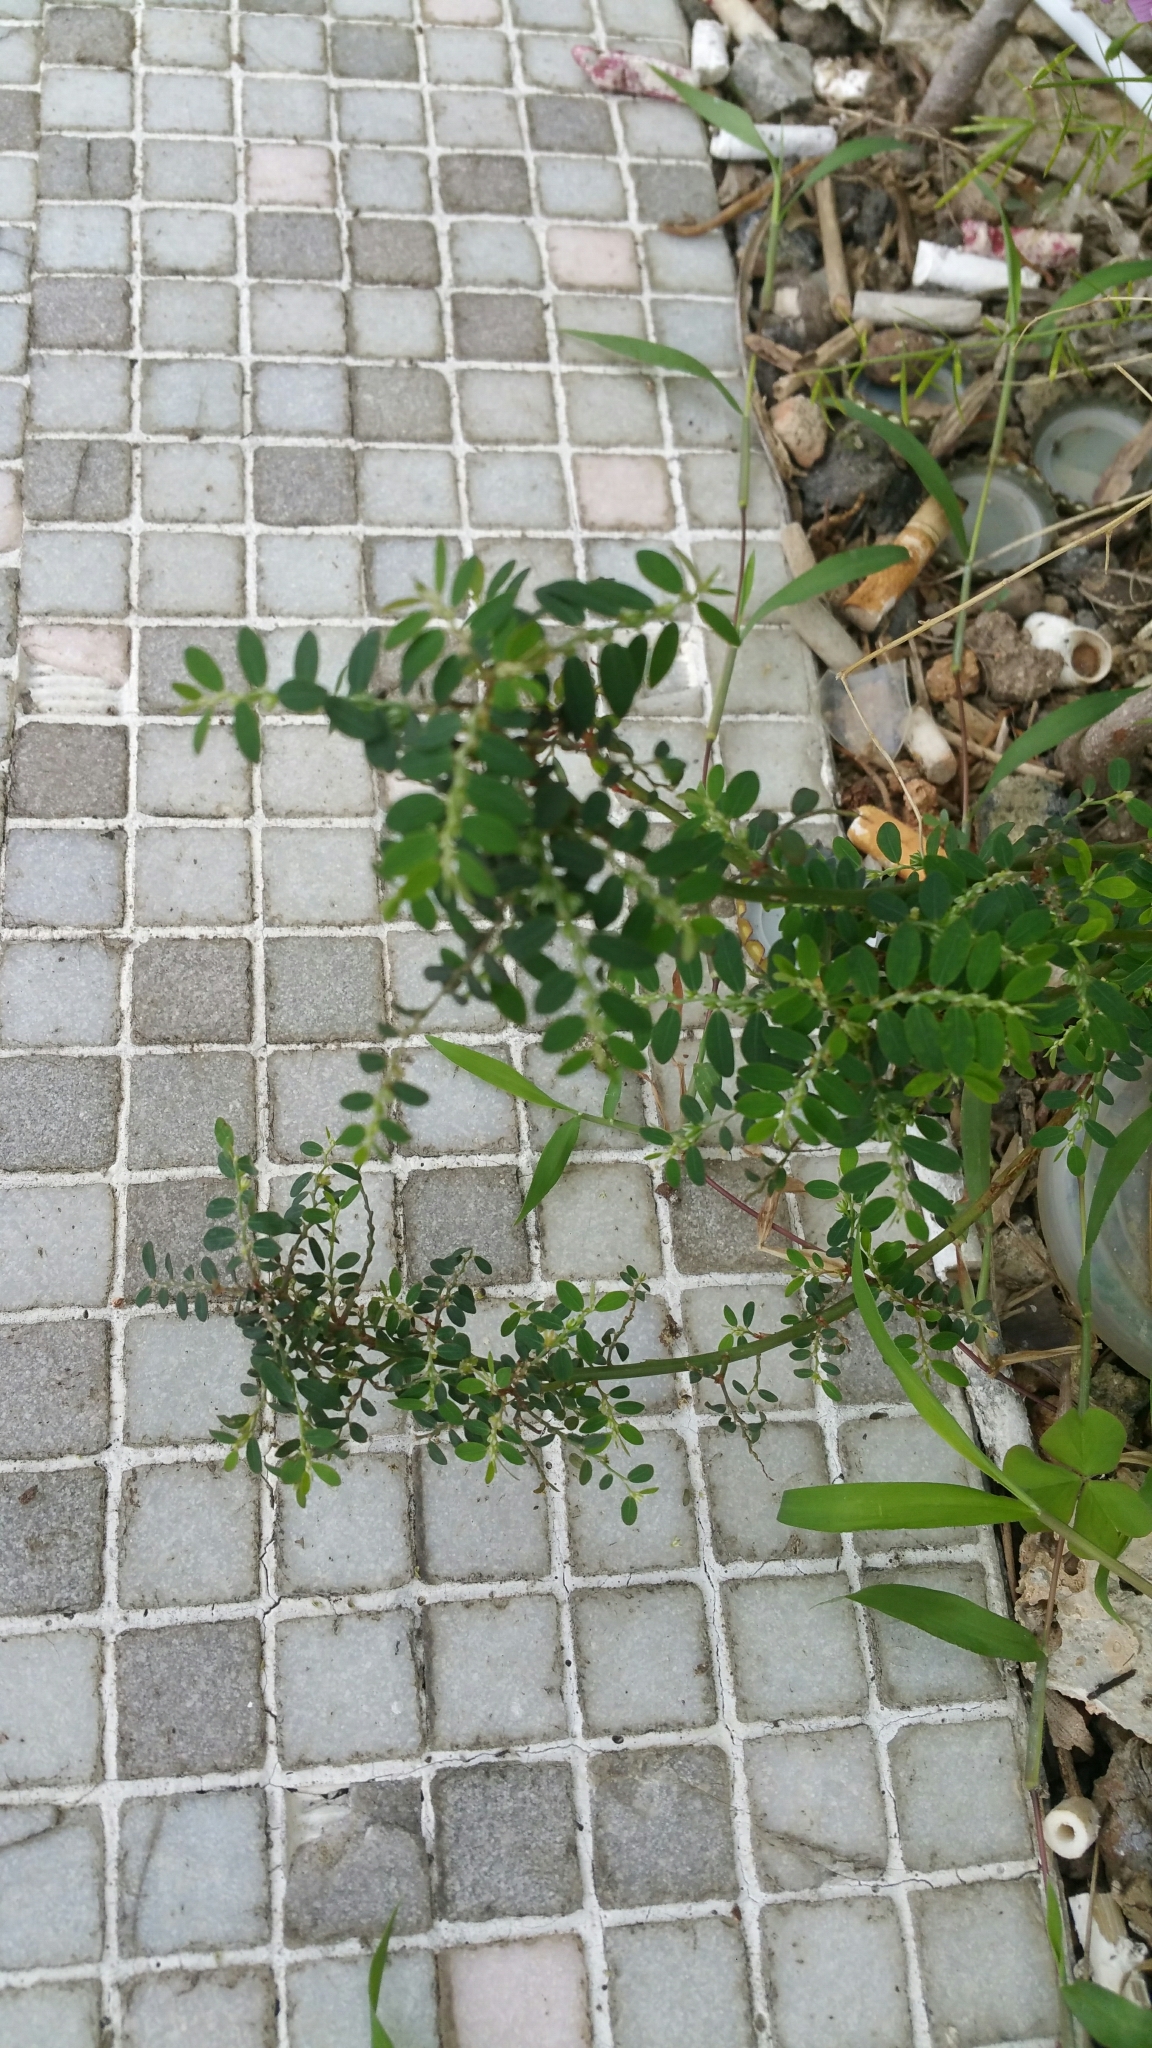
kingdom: Plantae
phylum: Tracheophyta
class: Magnoliopsida
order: Malpighiales
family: Phyllanthaceae
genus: Phyllanthus
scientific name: Phyllanthus debilis
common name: Niruri
